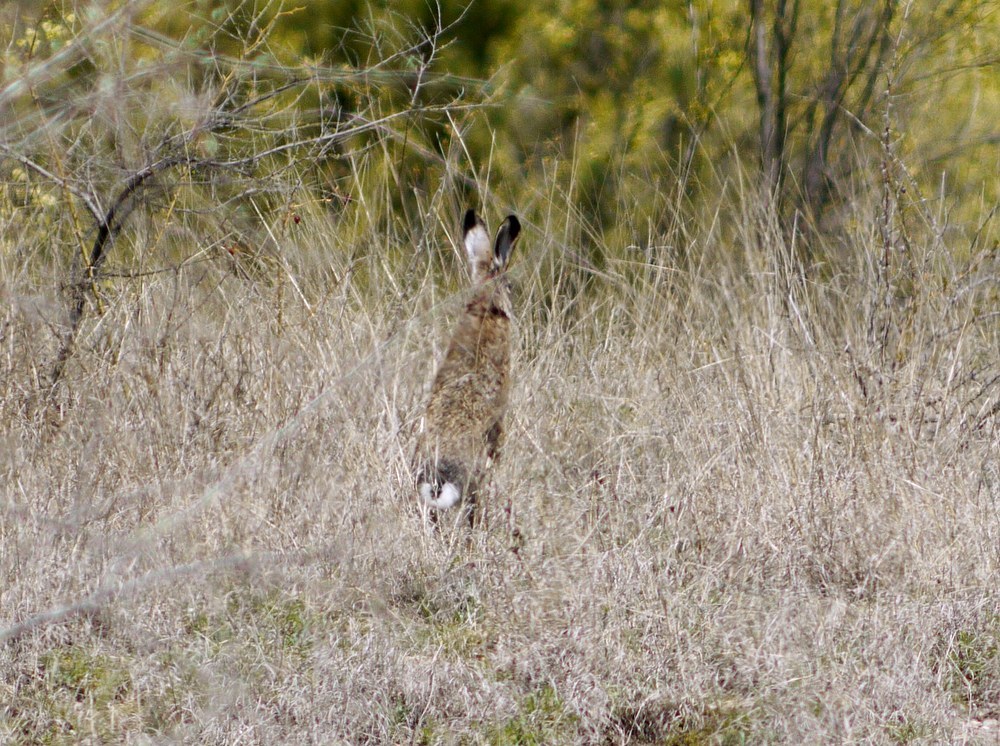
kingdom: Animalia
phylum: Chordata
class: Mammalia
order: Lagomorpha
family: Leporidae
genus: Lepus
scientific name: Lepus europaeus
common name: European hare
